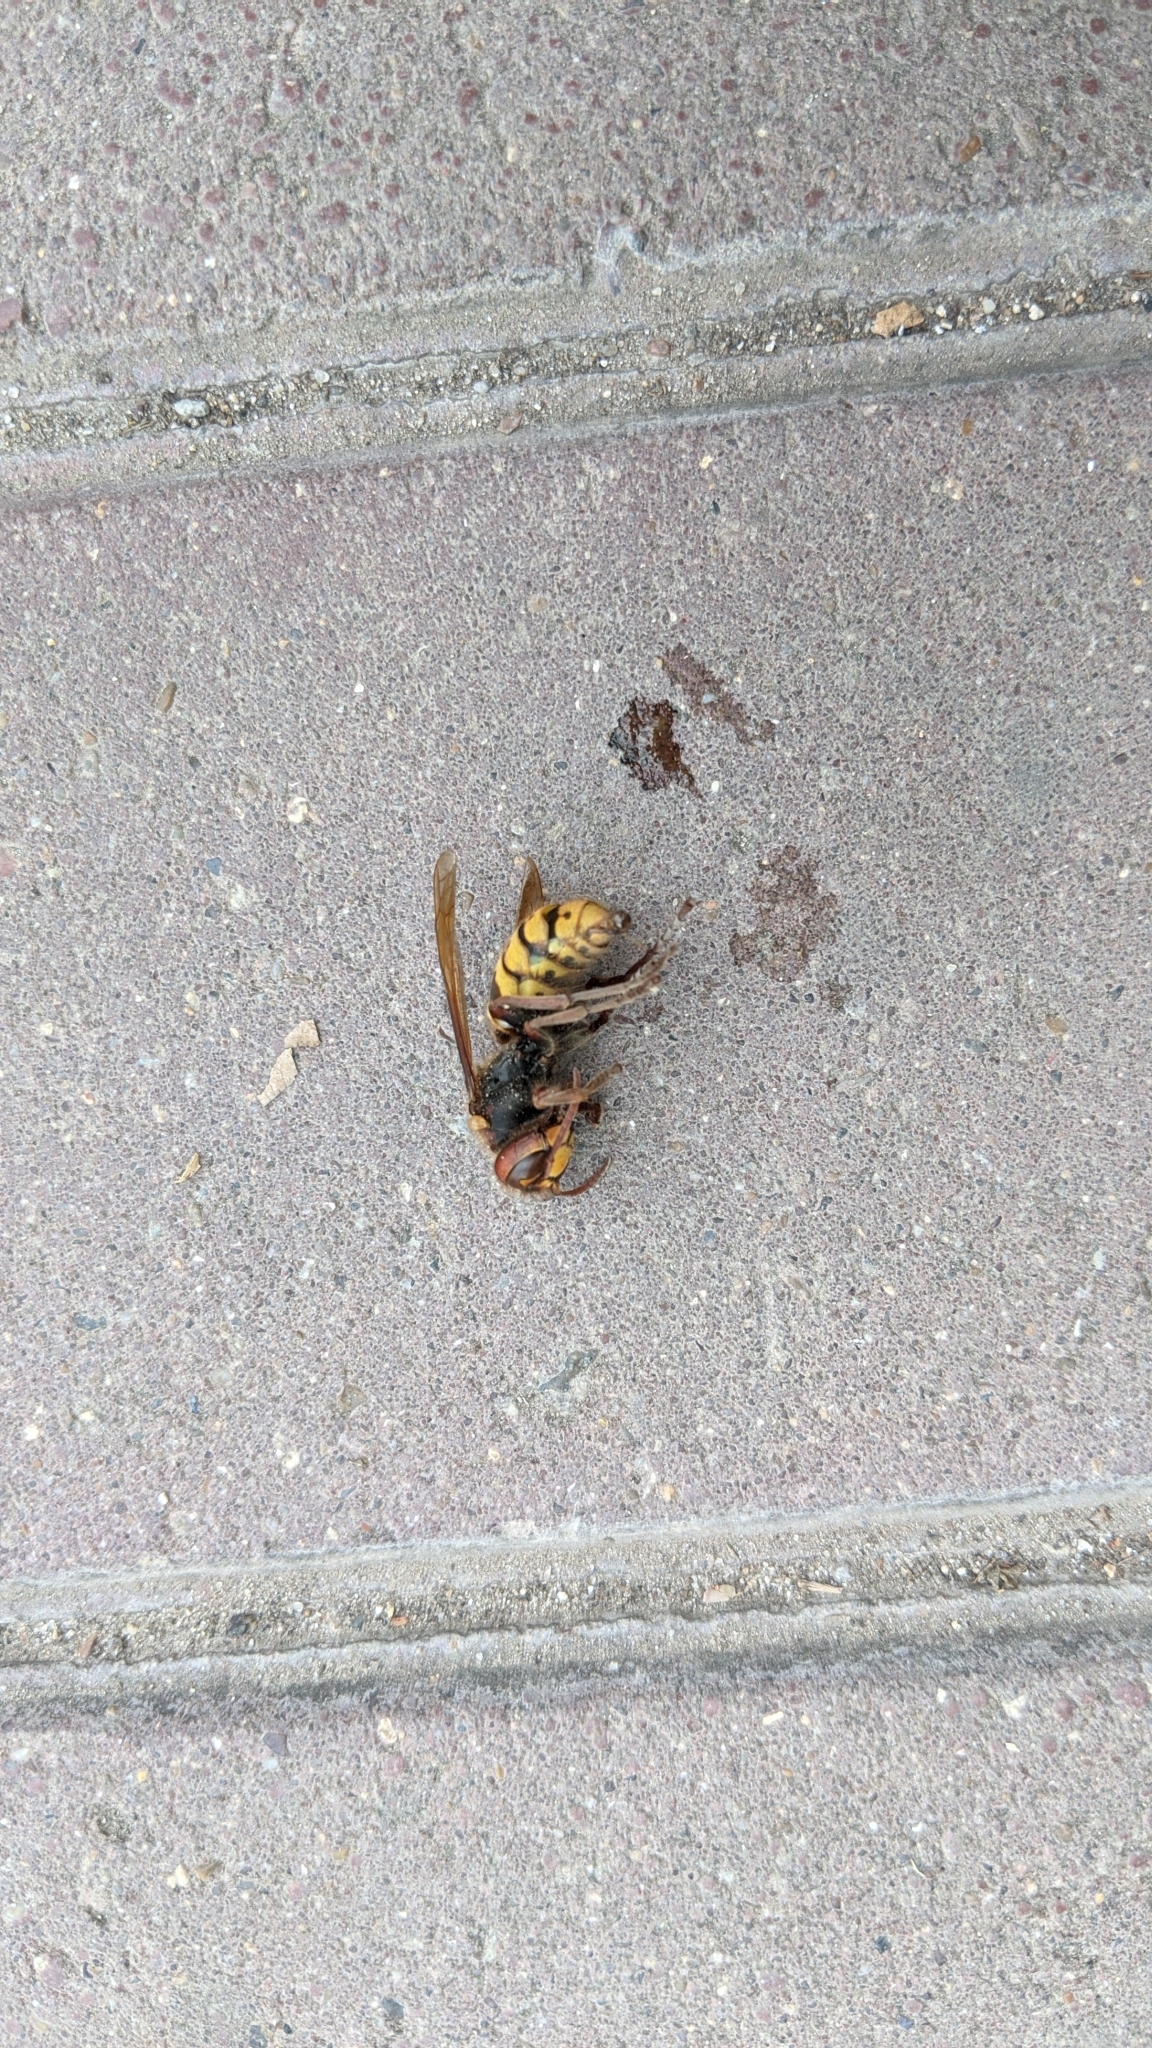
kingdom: Animalia
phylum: Arthropoda
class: Insecta
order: Hymenoptera
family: Vespidae
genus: Vespa
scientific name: Vespa crabro
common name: Hornet
